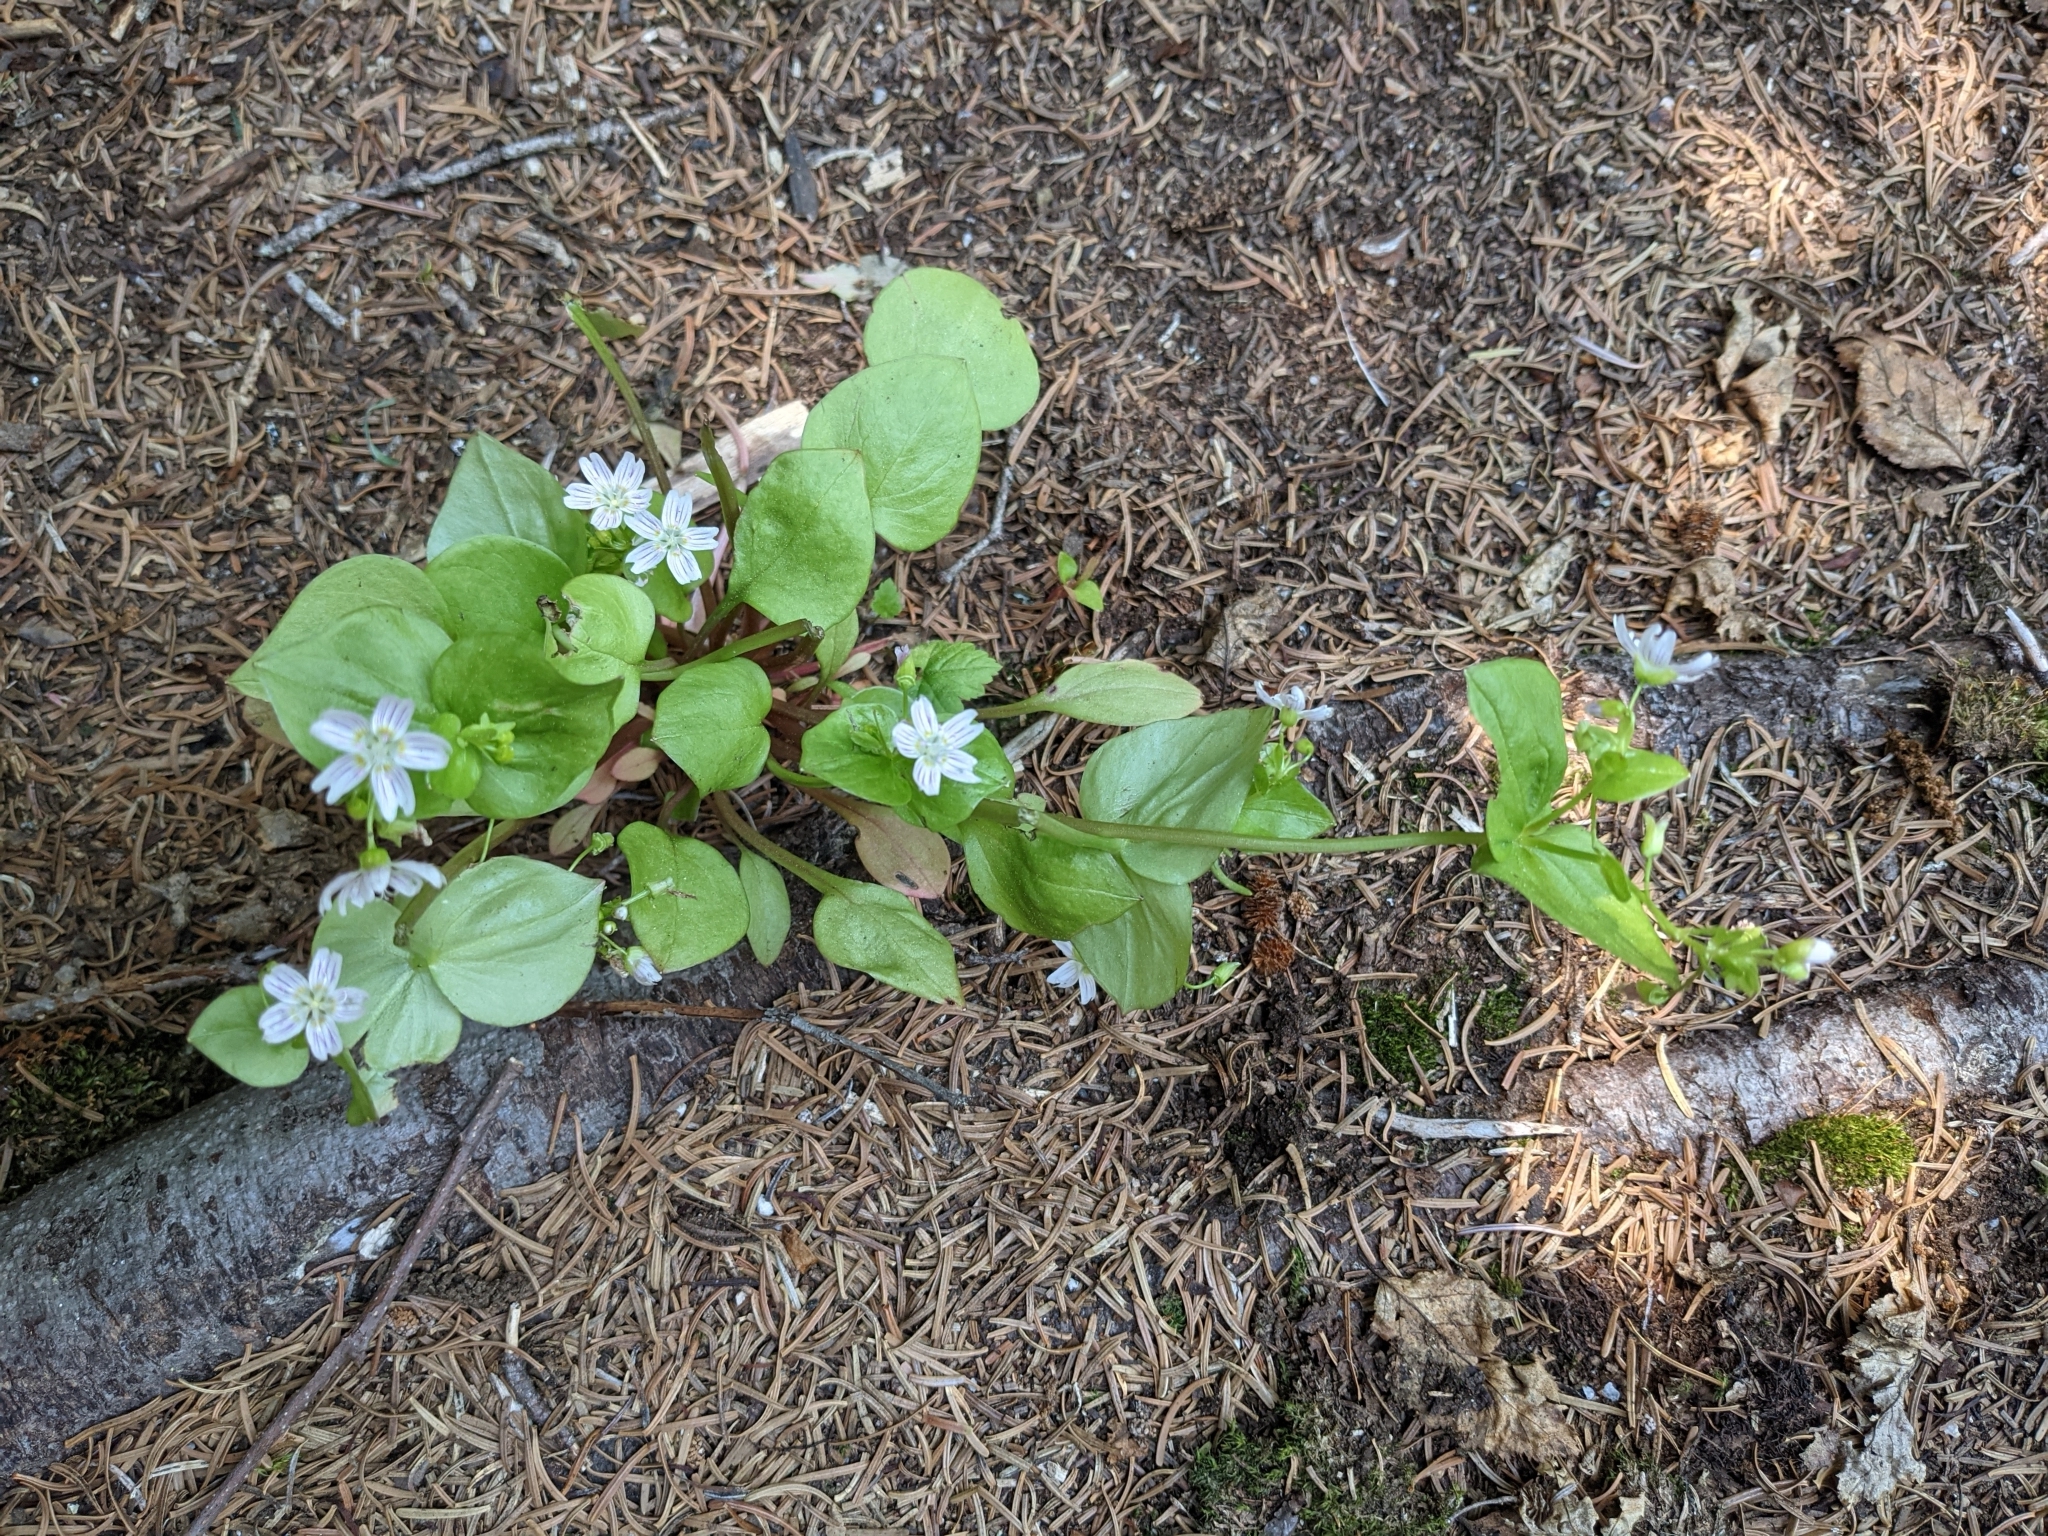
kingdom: Plantae
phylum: Tracheophyta
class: Magnoliopsida
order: Caryophyllales
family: Montiaceae
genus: Claytonia
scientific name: Claytonia sibirica
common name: Pink purslane
